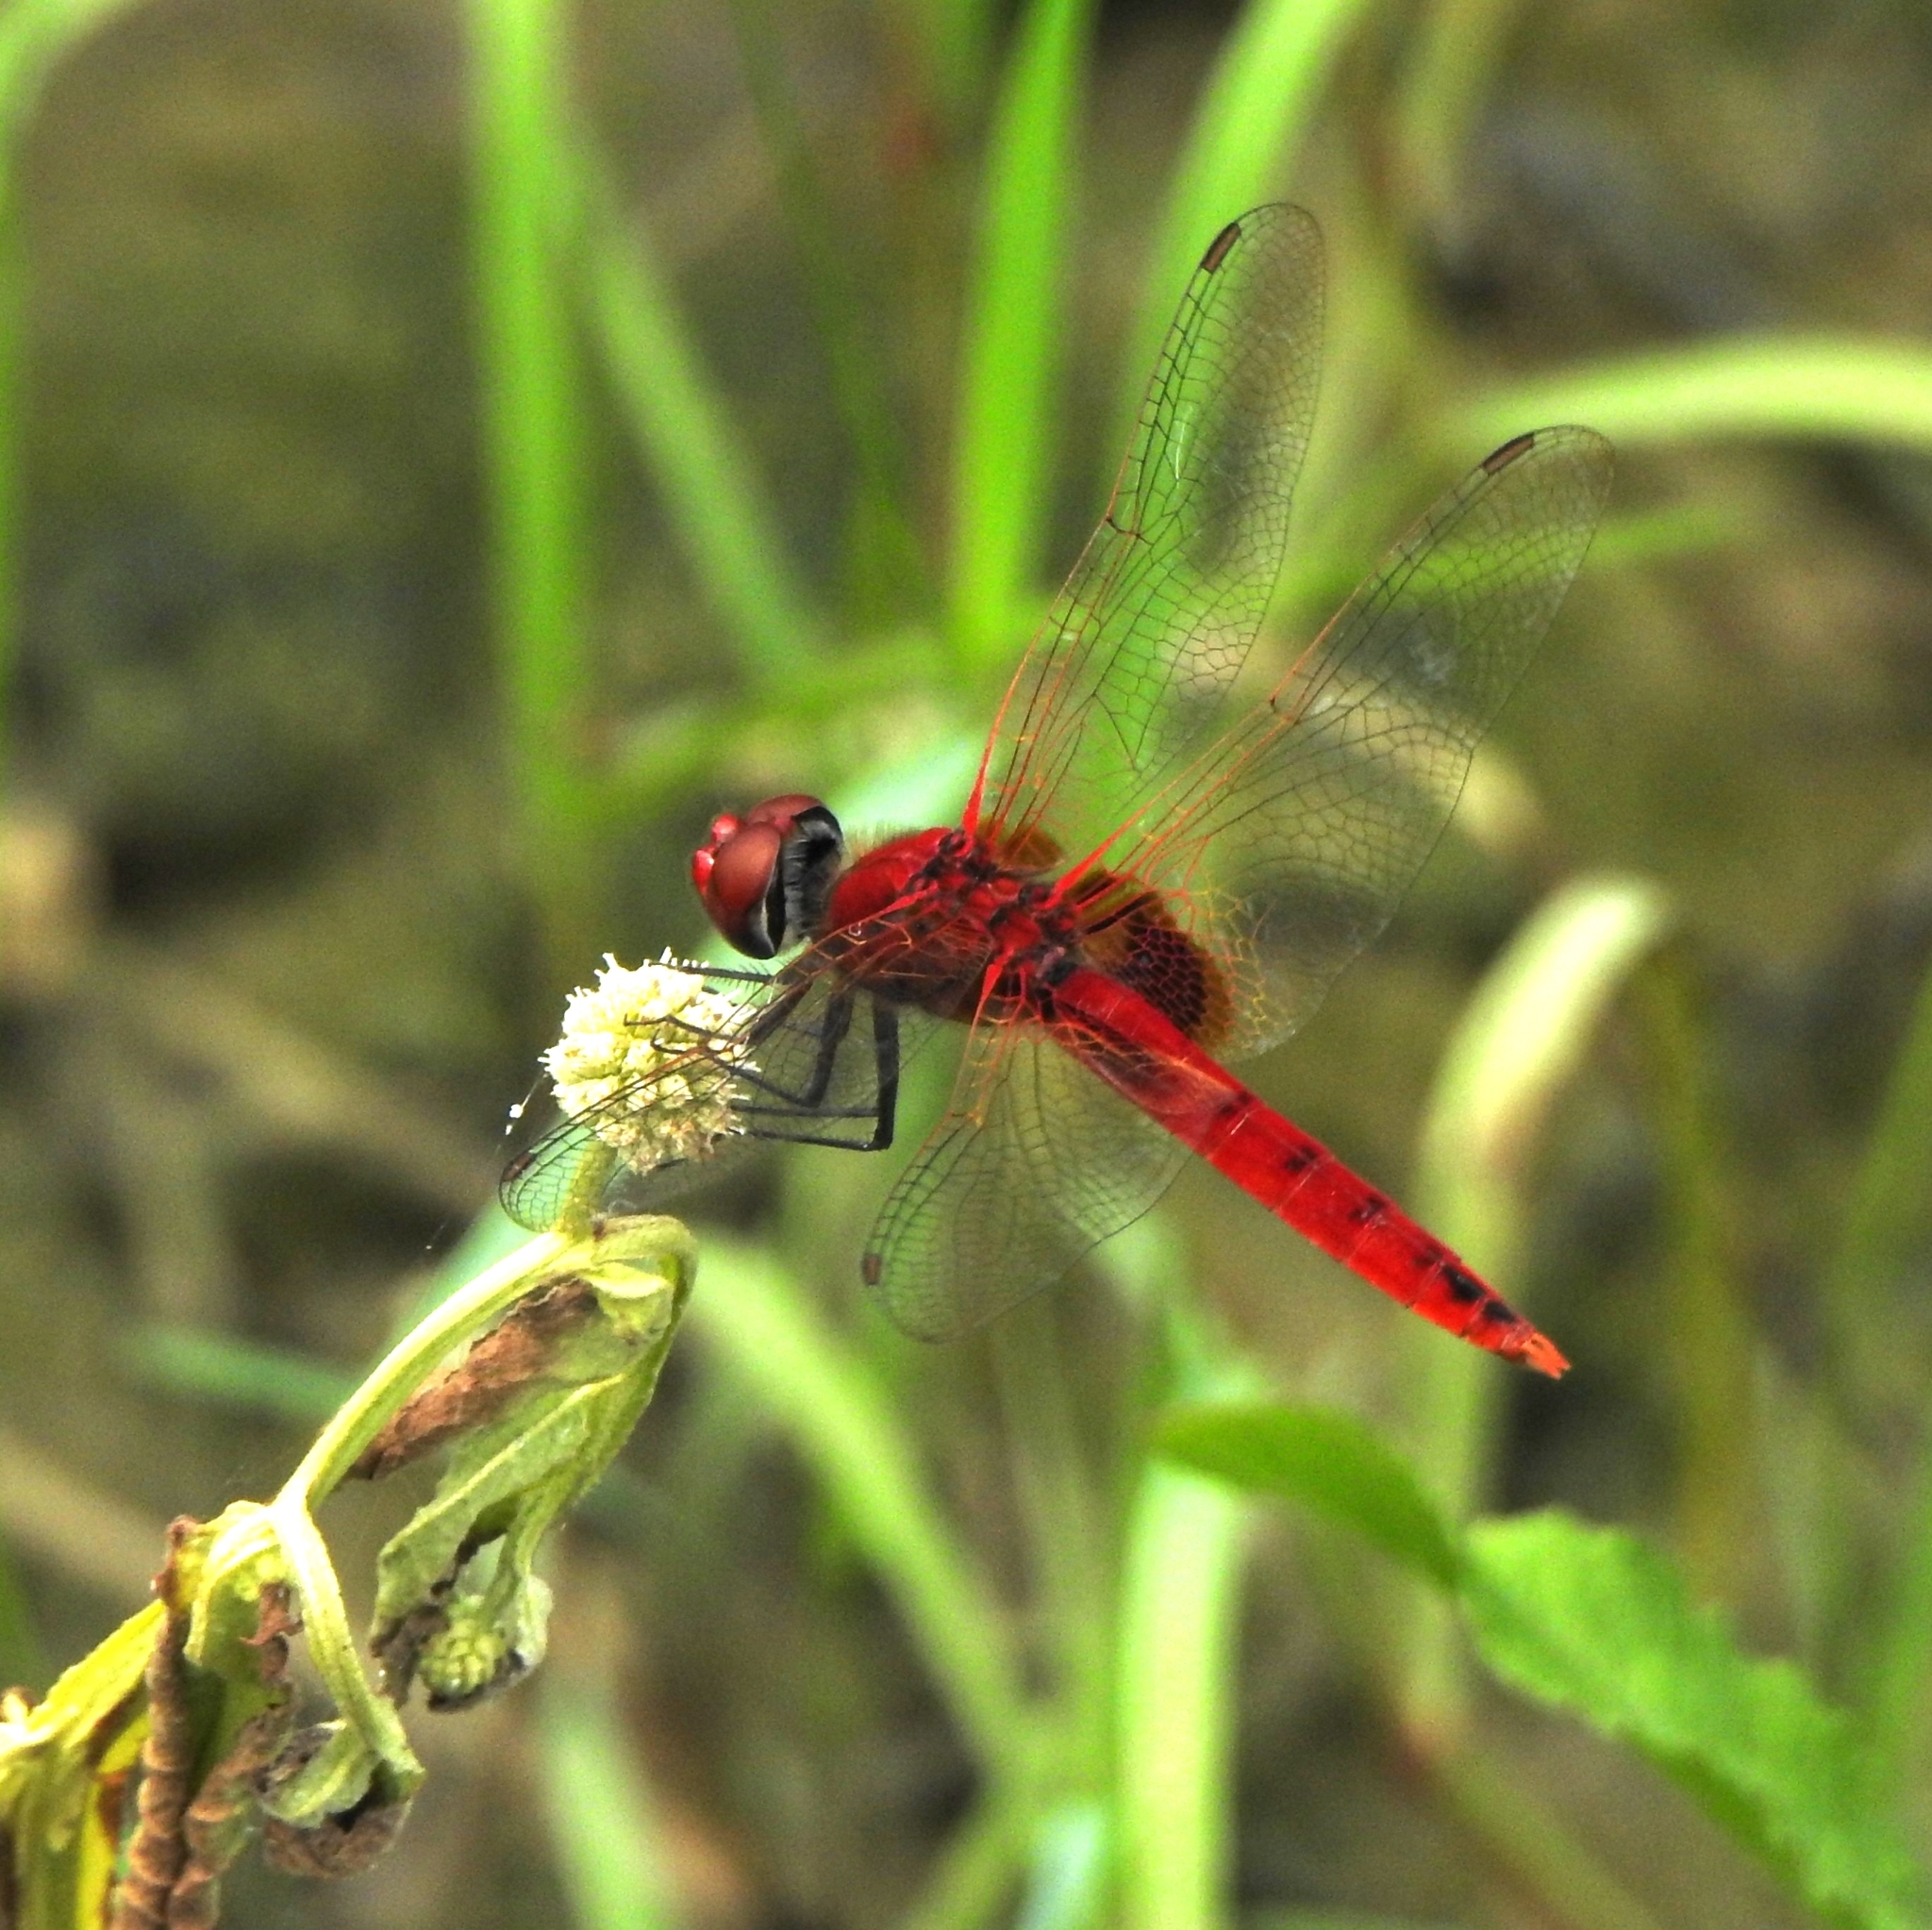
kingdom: Animalia
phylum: Arthropoda
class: Insecta
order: Odonata
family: Libellulidae
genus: Urothemis
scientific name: Urothemis signata
